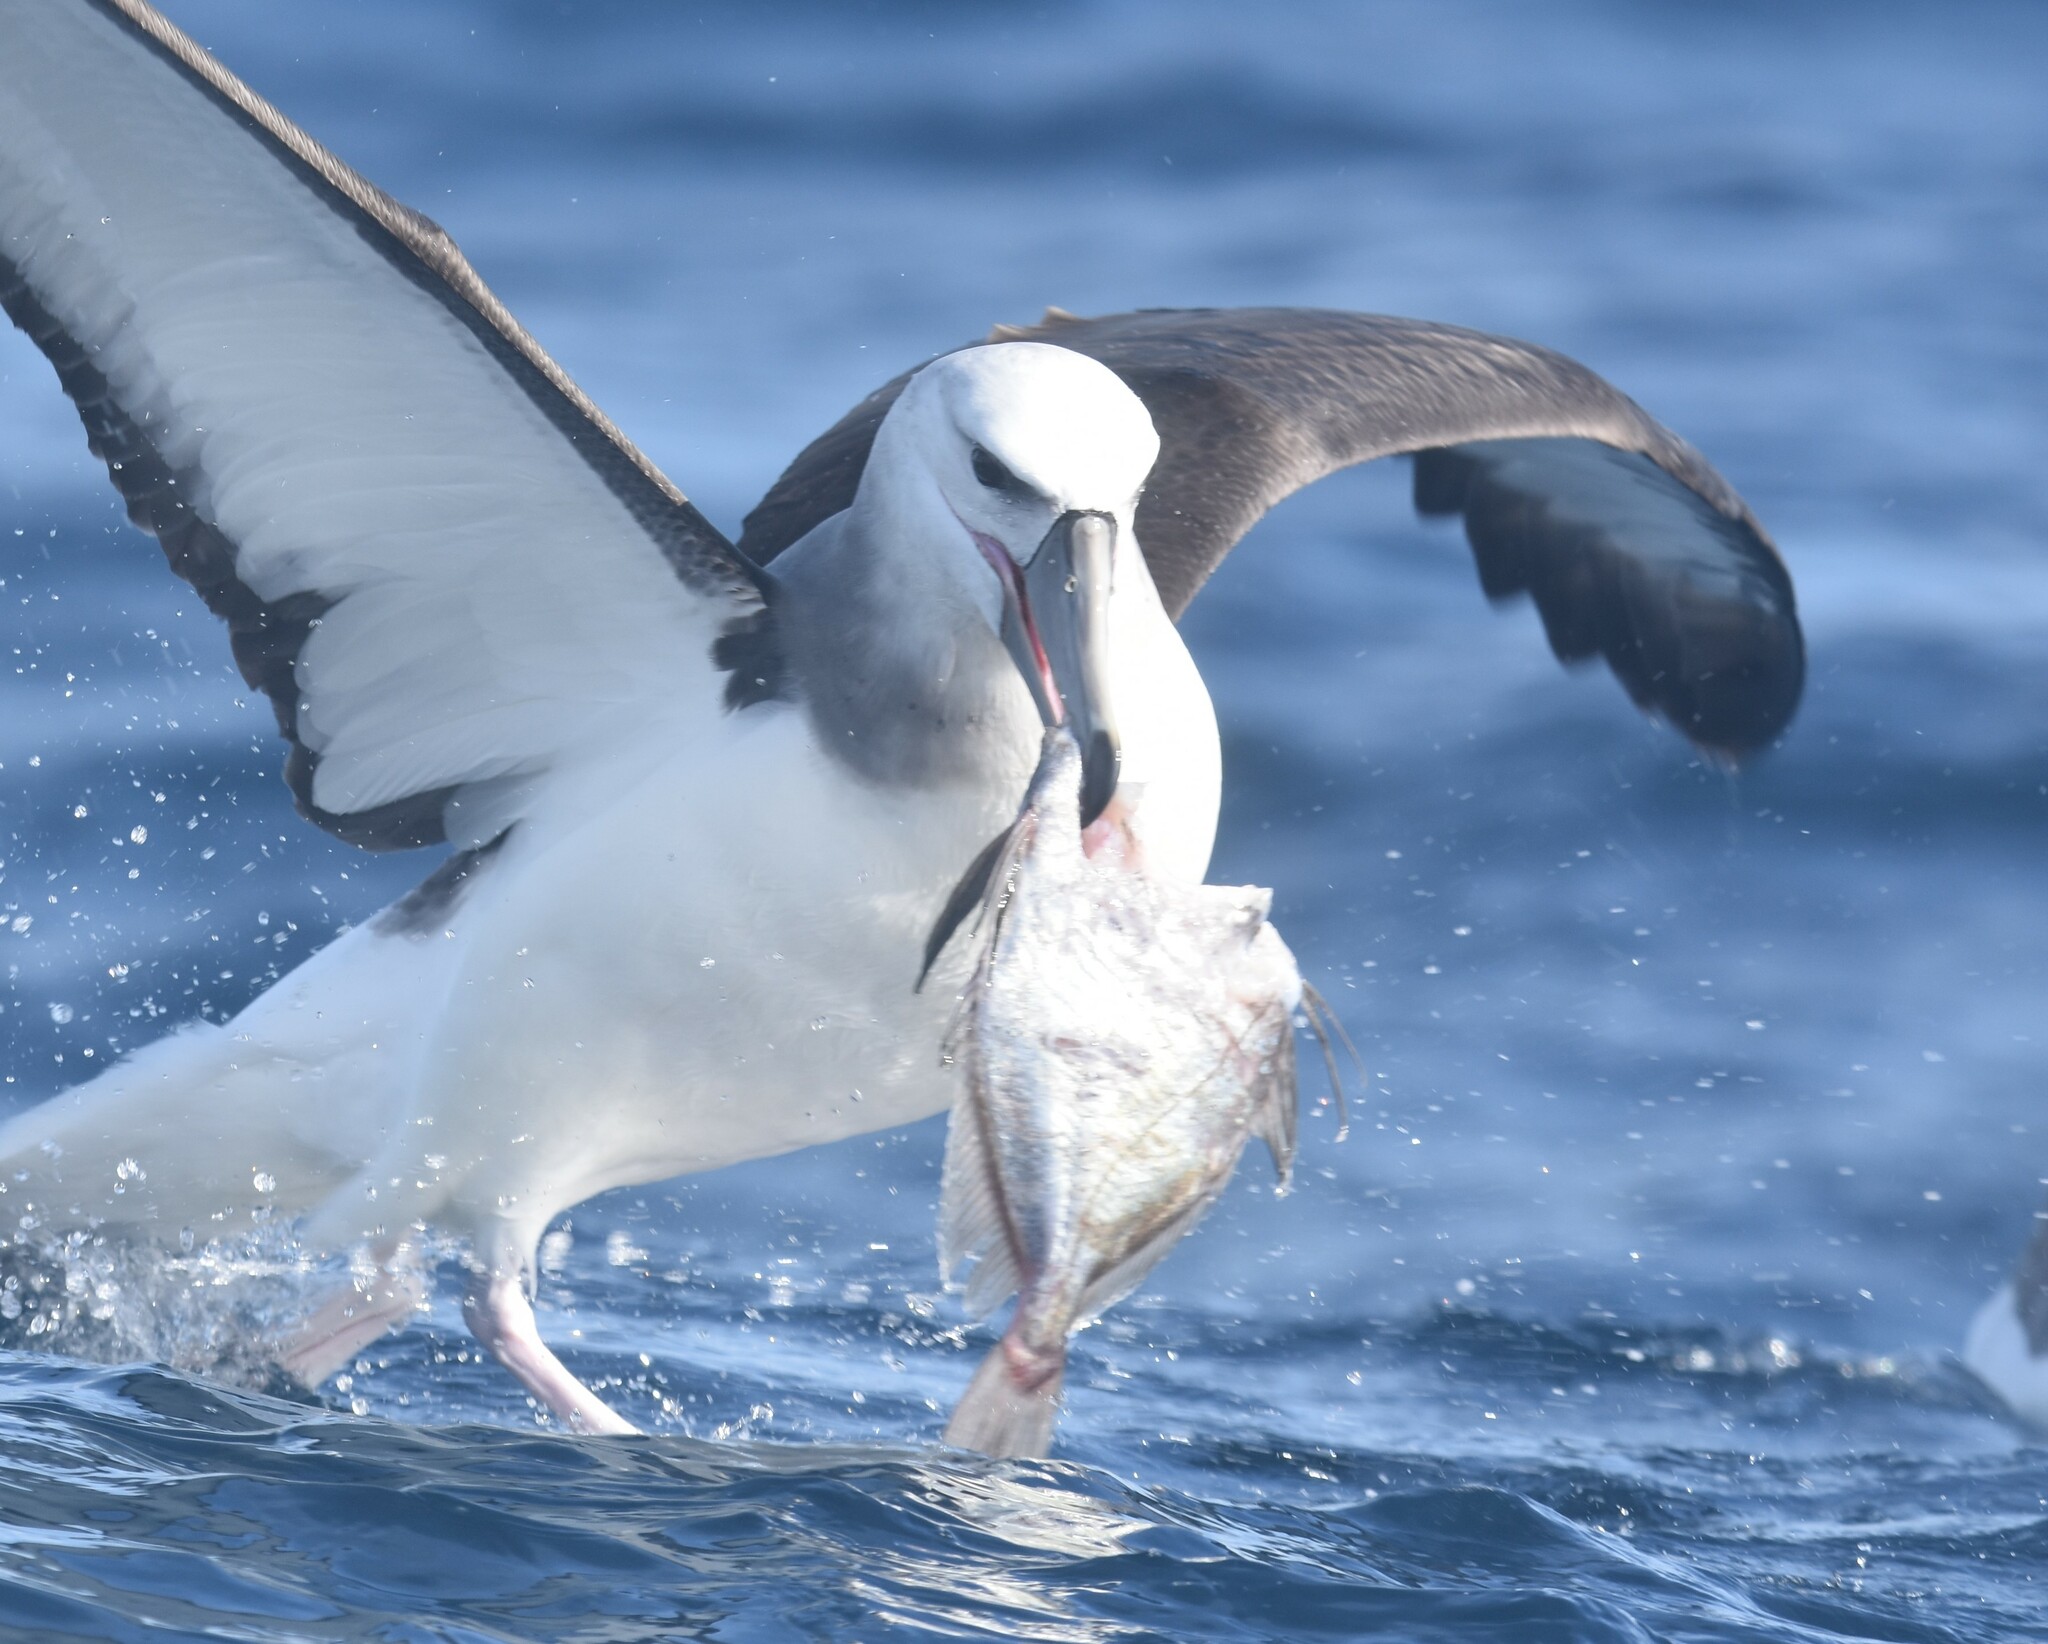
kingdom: Animalia
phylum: Chordata
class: Aves
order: Procellariiformes
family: Diomedeidae
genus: Thalassarche
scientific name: Thalassarche cauta
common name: Shy albatross
